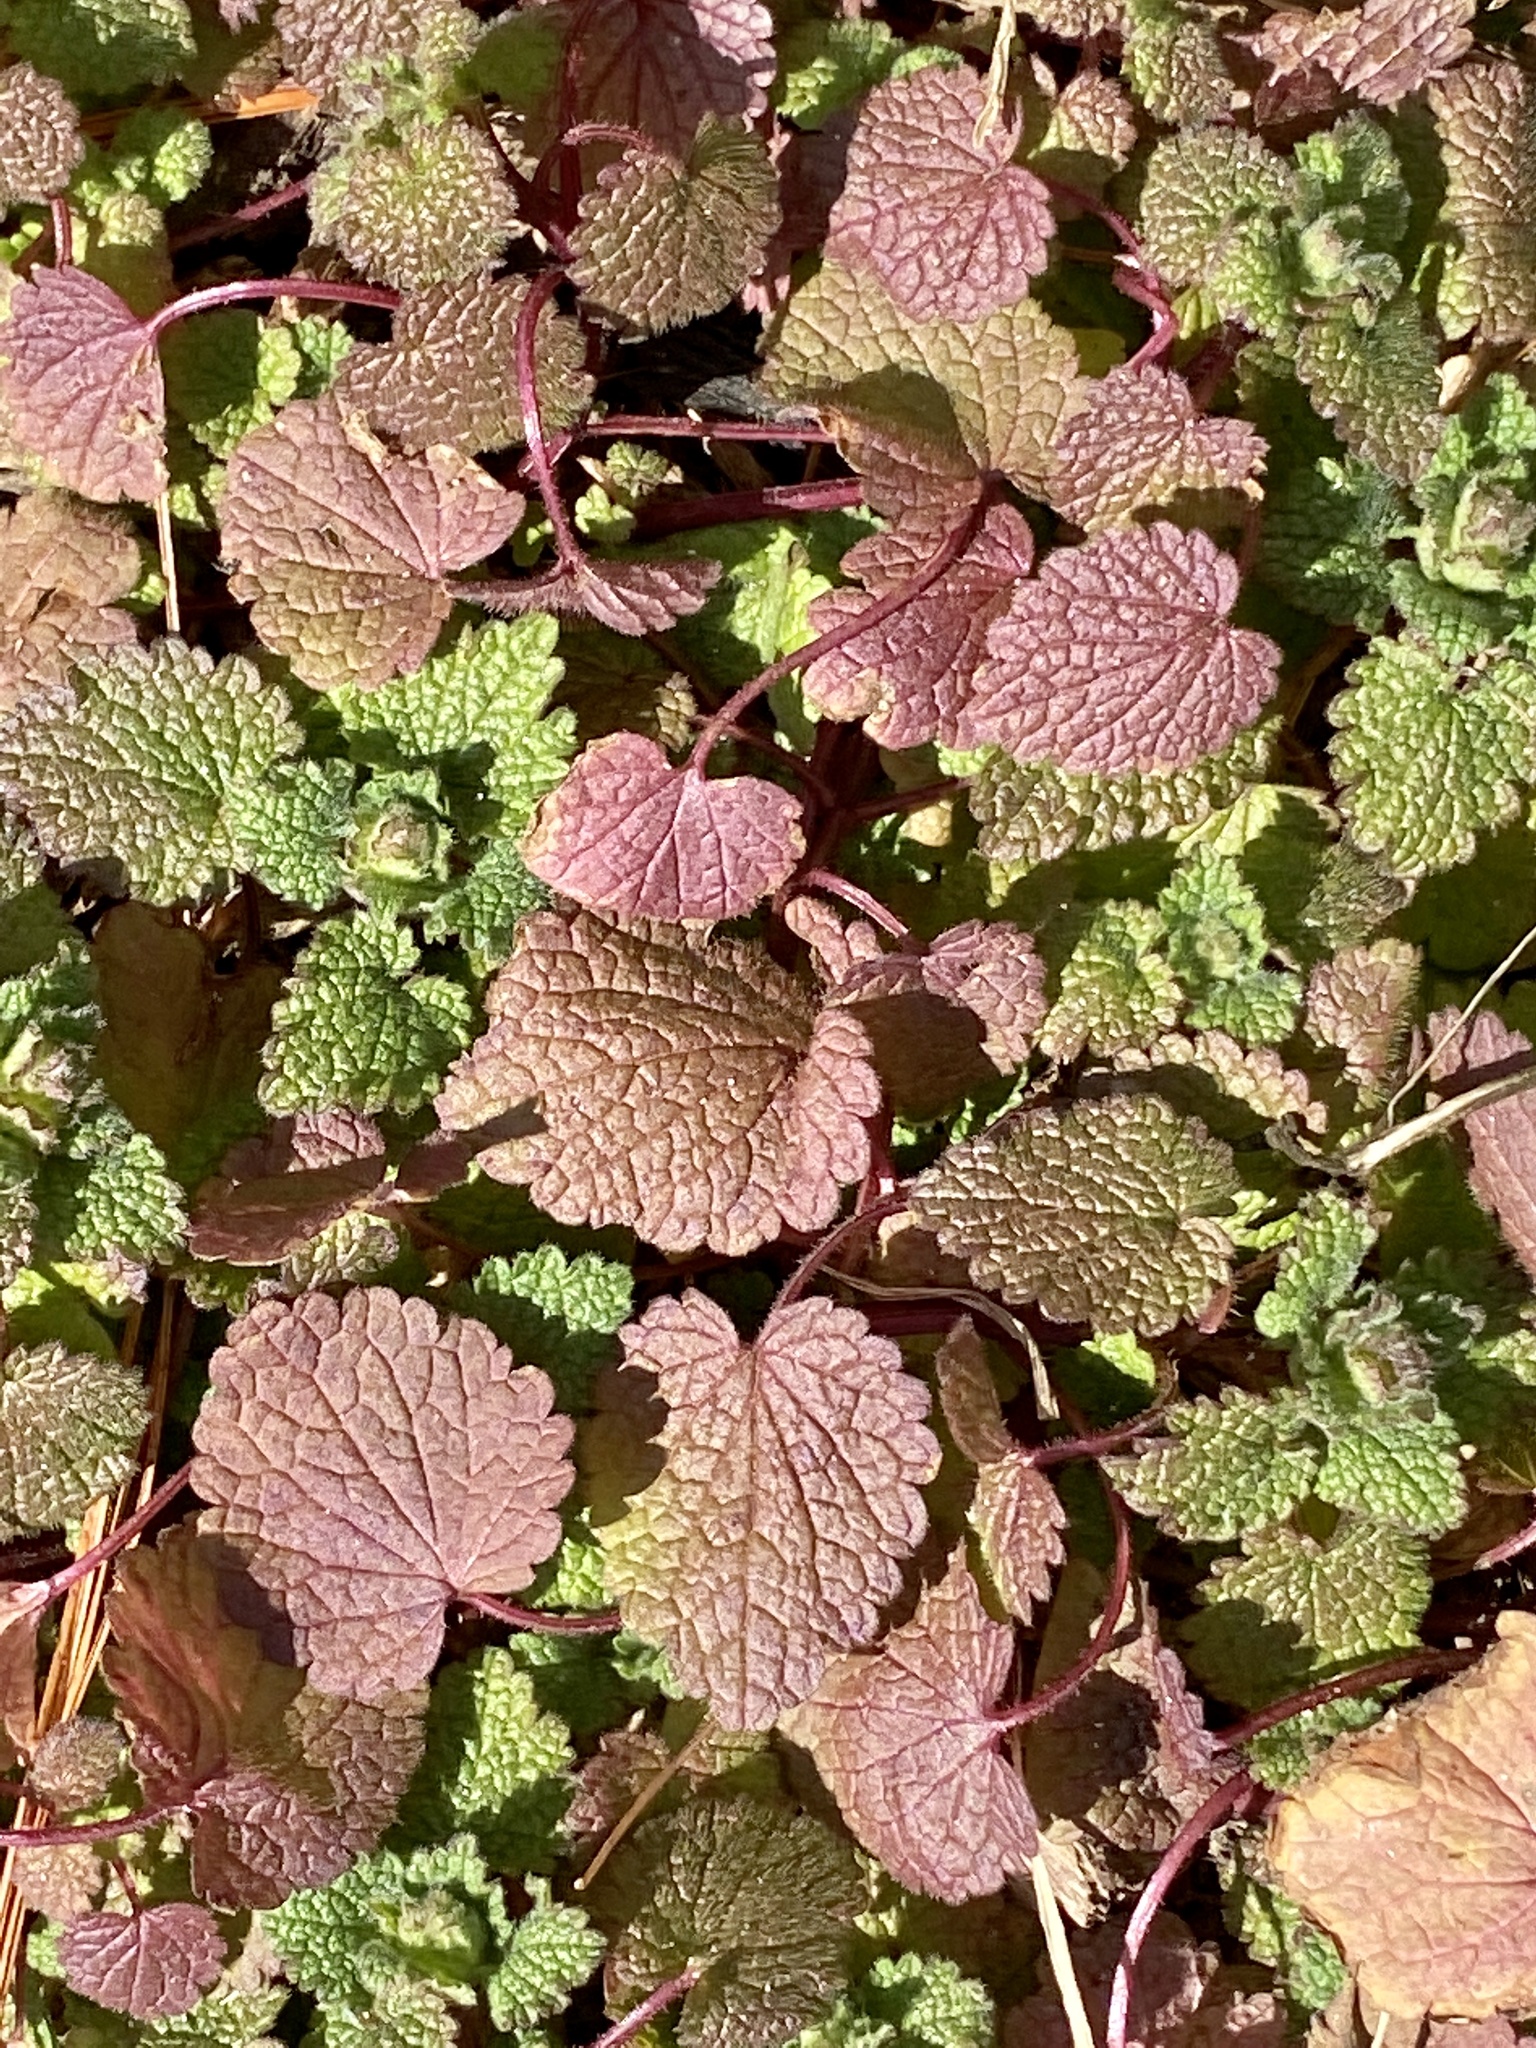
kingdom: Plantae
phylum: Tracheophyta
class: Magnoliopsida
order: Lamiales
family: Lamiaceae
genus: Lamium
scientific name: Lamium purpureum
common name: Red dead-nettle
